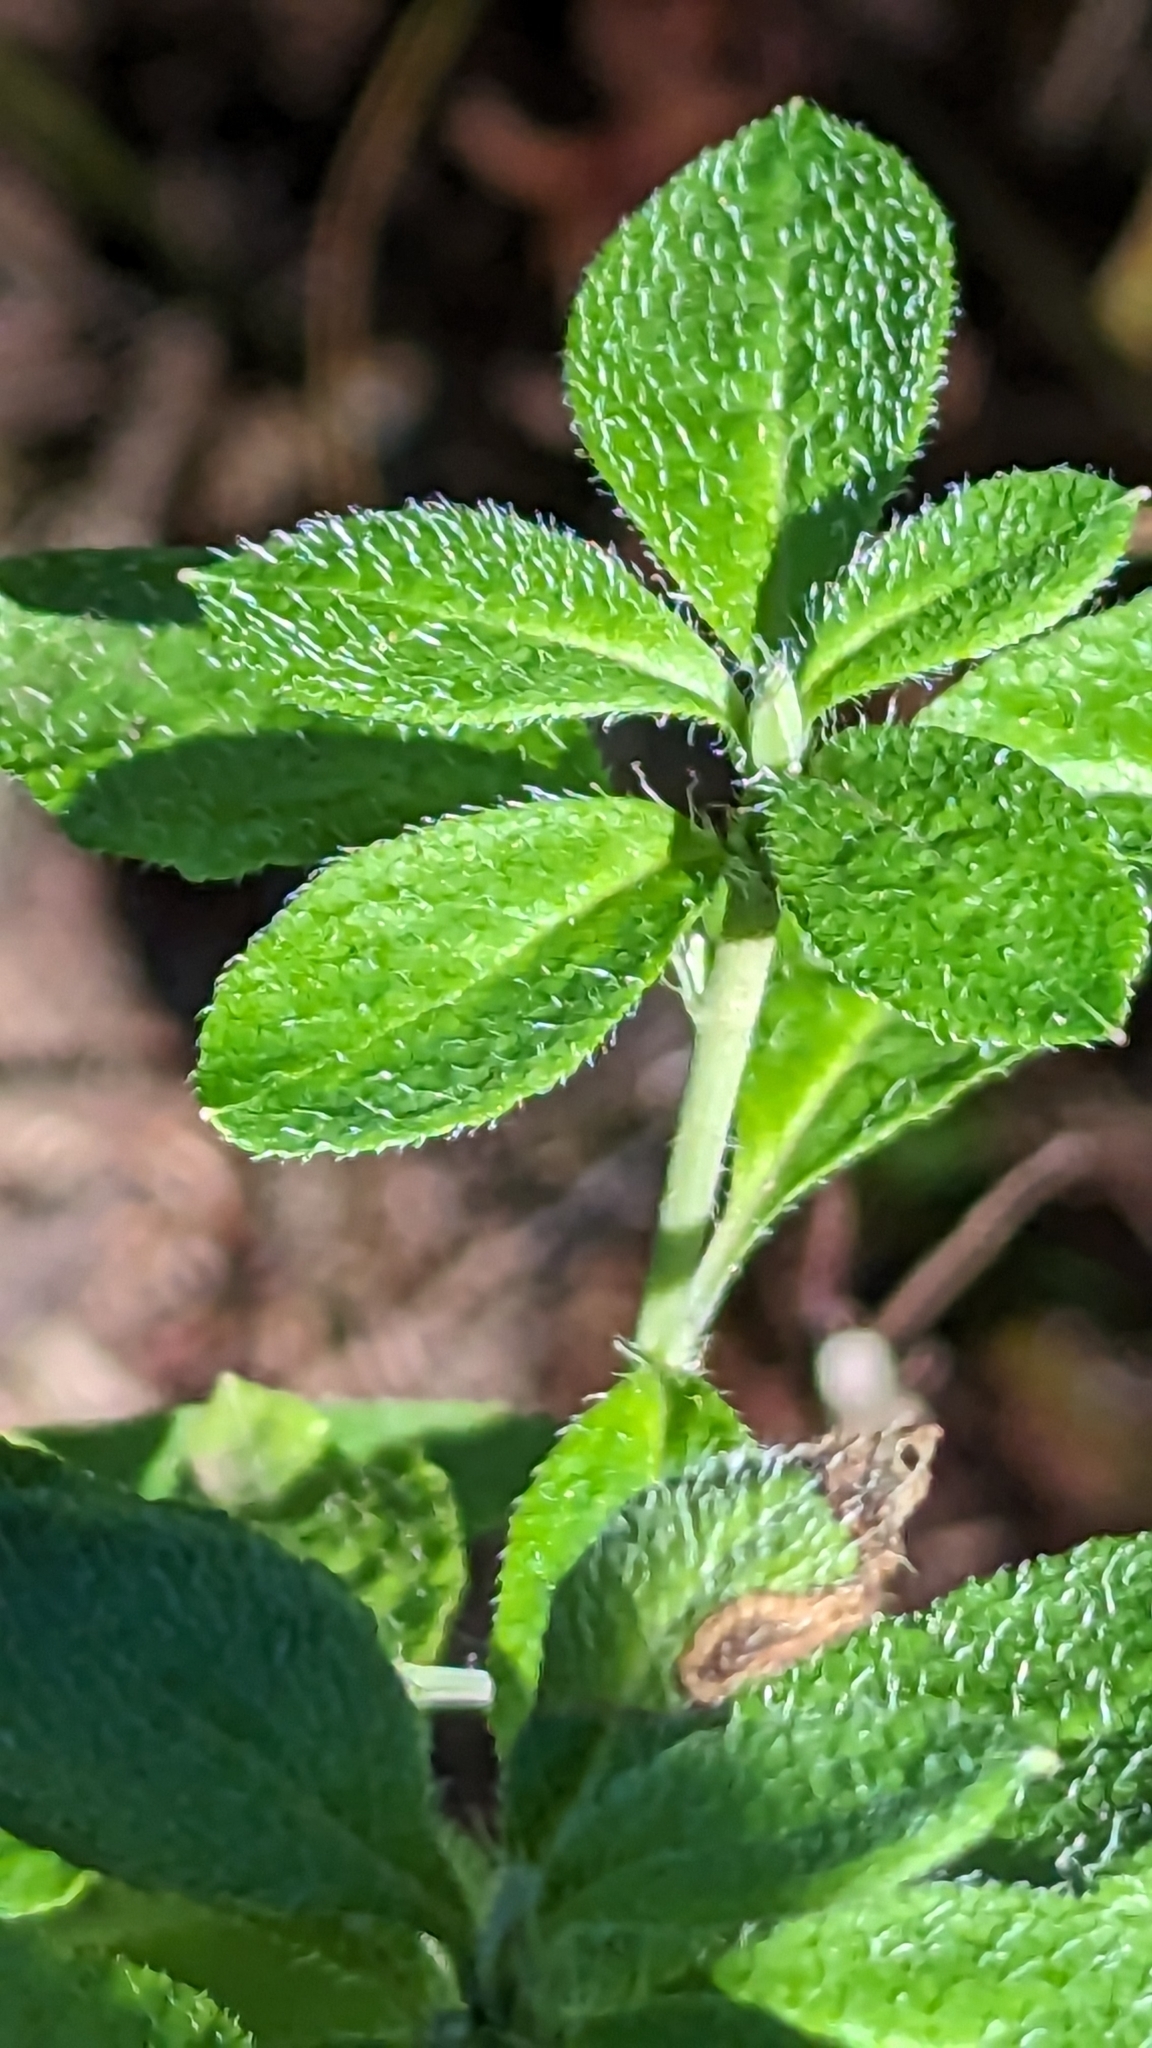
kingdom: Plantae
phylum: Tracheophyta
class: Magnoliopsida
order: Ericales
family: Ericaceae
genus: Rhododendron
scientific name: Rhododendron menziesii
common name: Pacific menziesia
